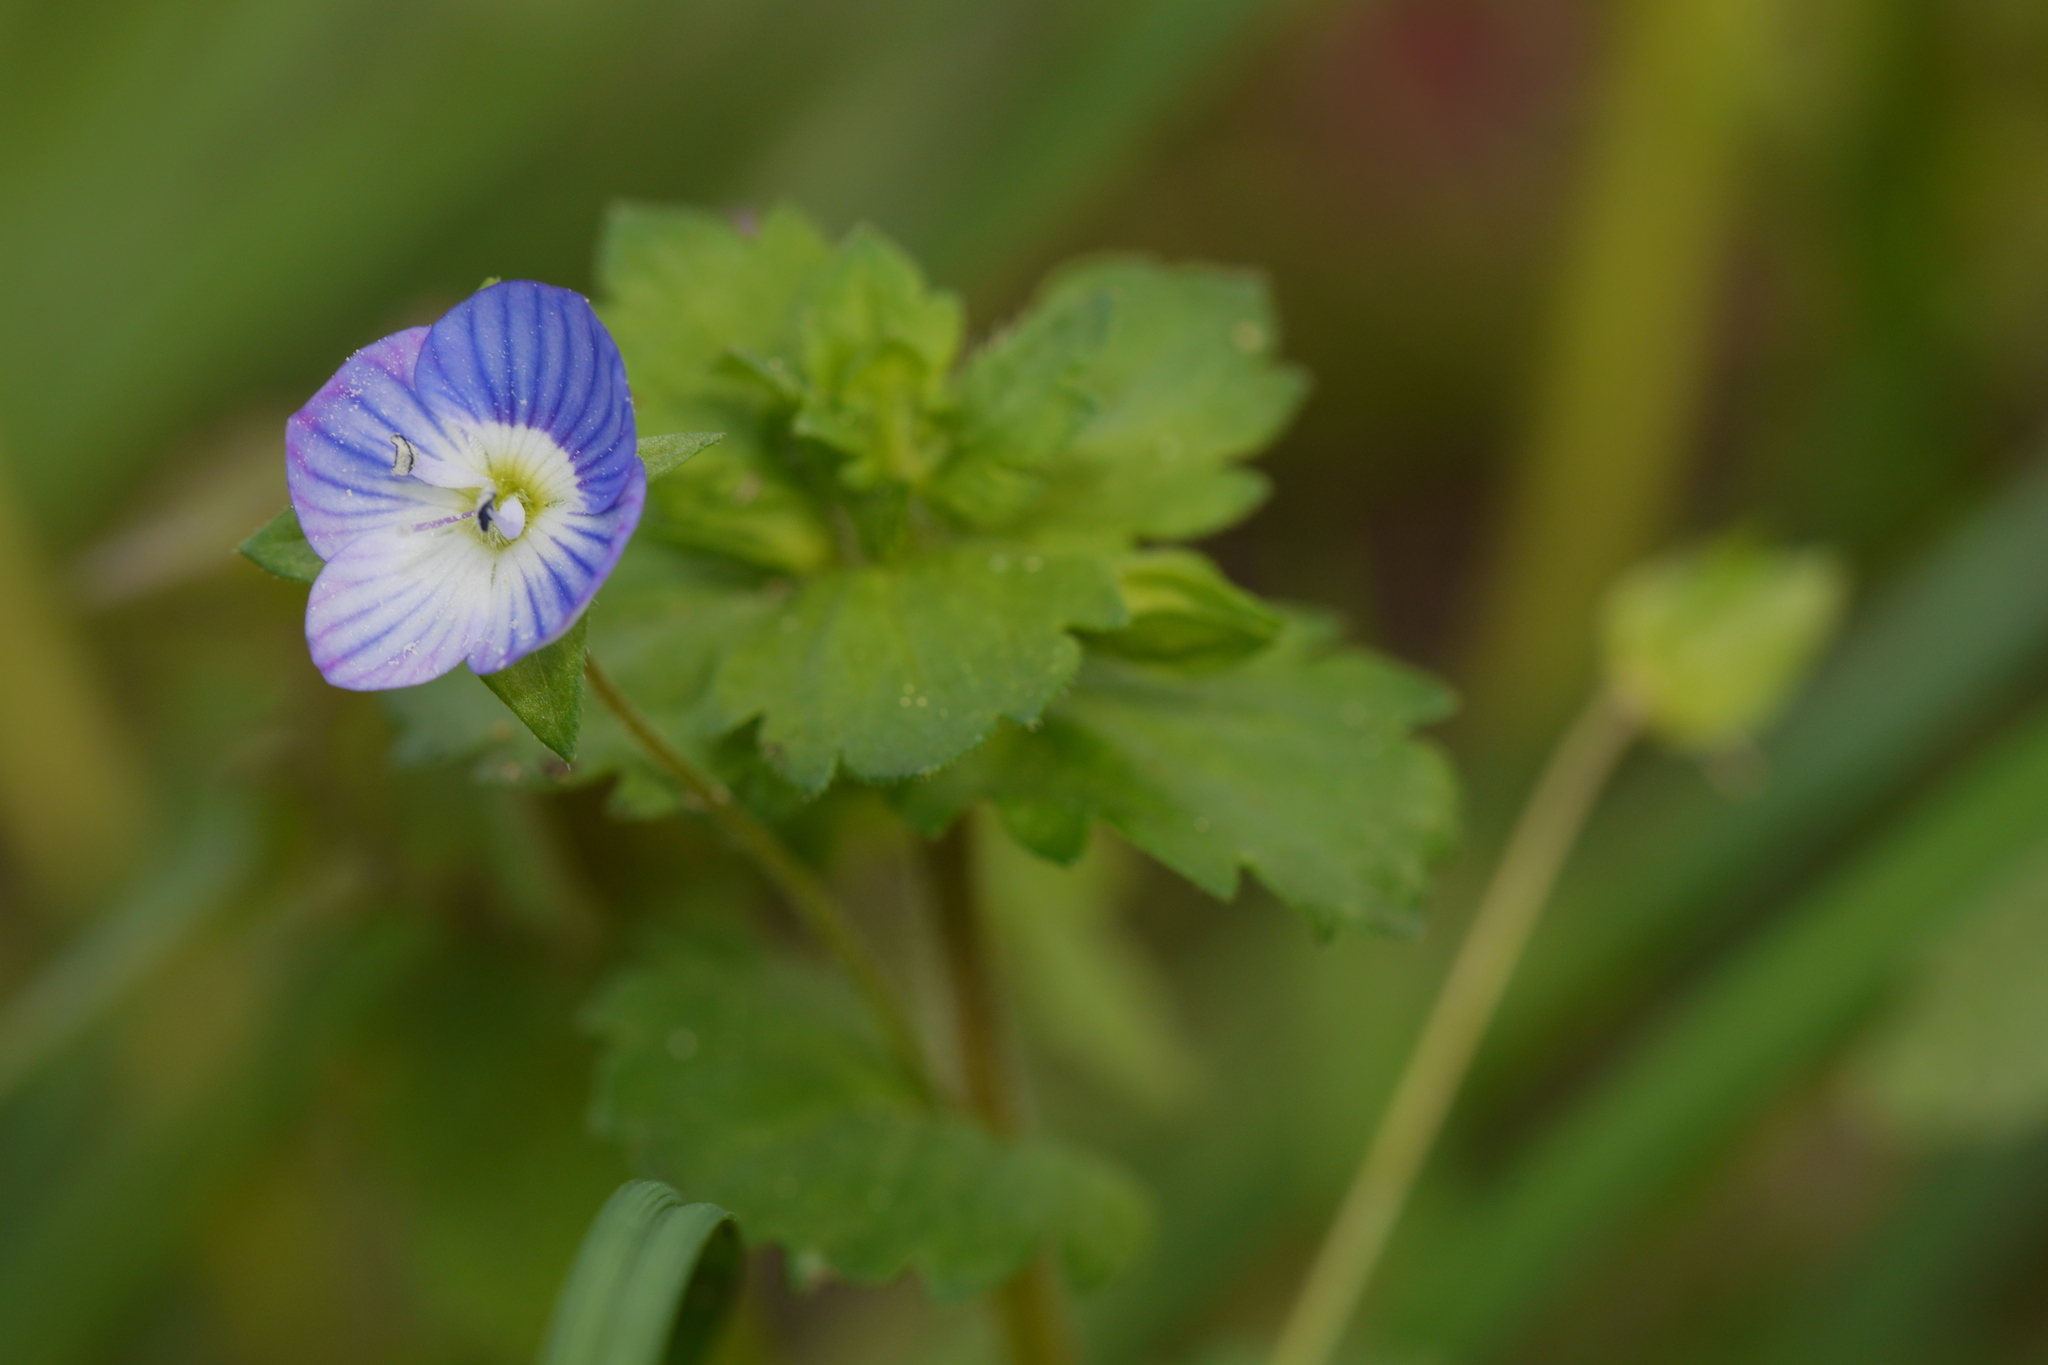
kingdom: Plantae
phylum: Tracheophyta
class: Magnoliopsida
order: Lamiales
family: Plantaginaceae
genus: Veronica
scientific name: Veronica persica
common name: Common field-speedwell
